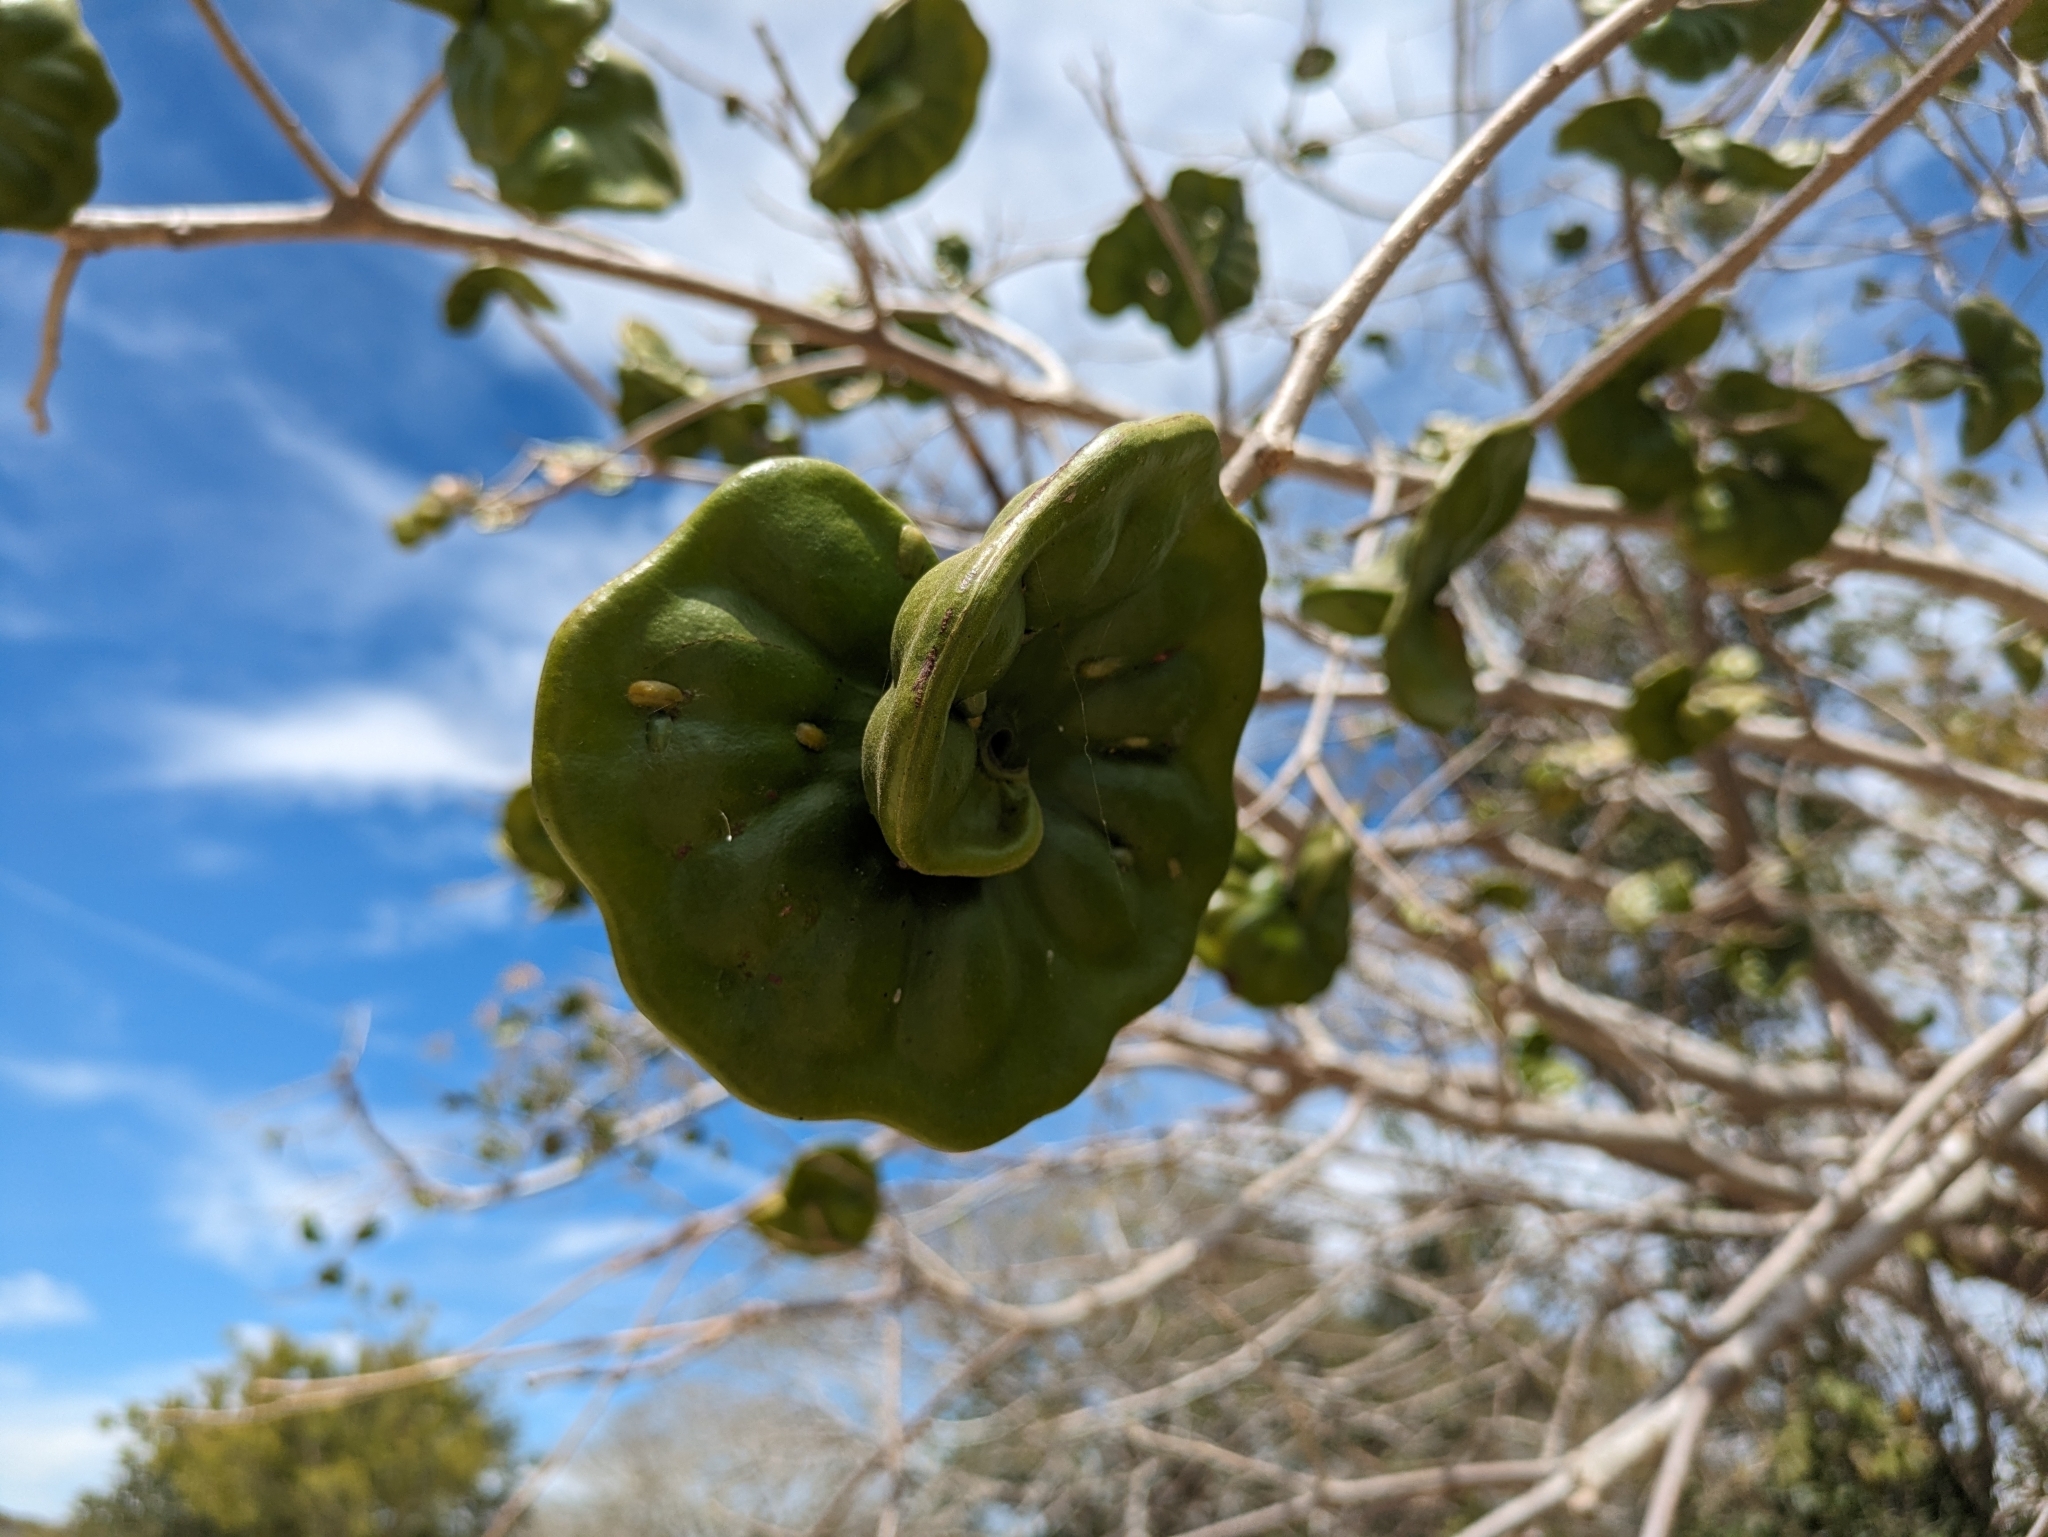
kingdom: Plantae
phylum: Tracheophyta
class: Magnoliopsida
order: Fabales
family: Fabaceae
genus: Enterolobium
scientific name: Enterolobium cyclocarpum
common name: Ear tree
